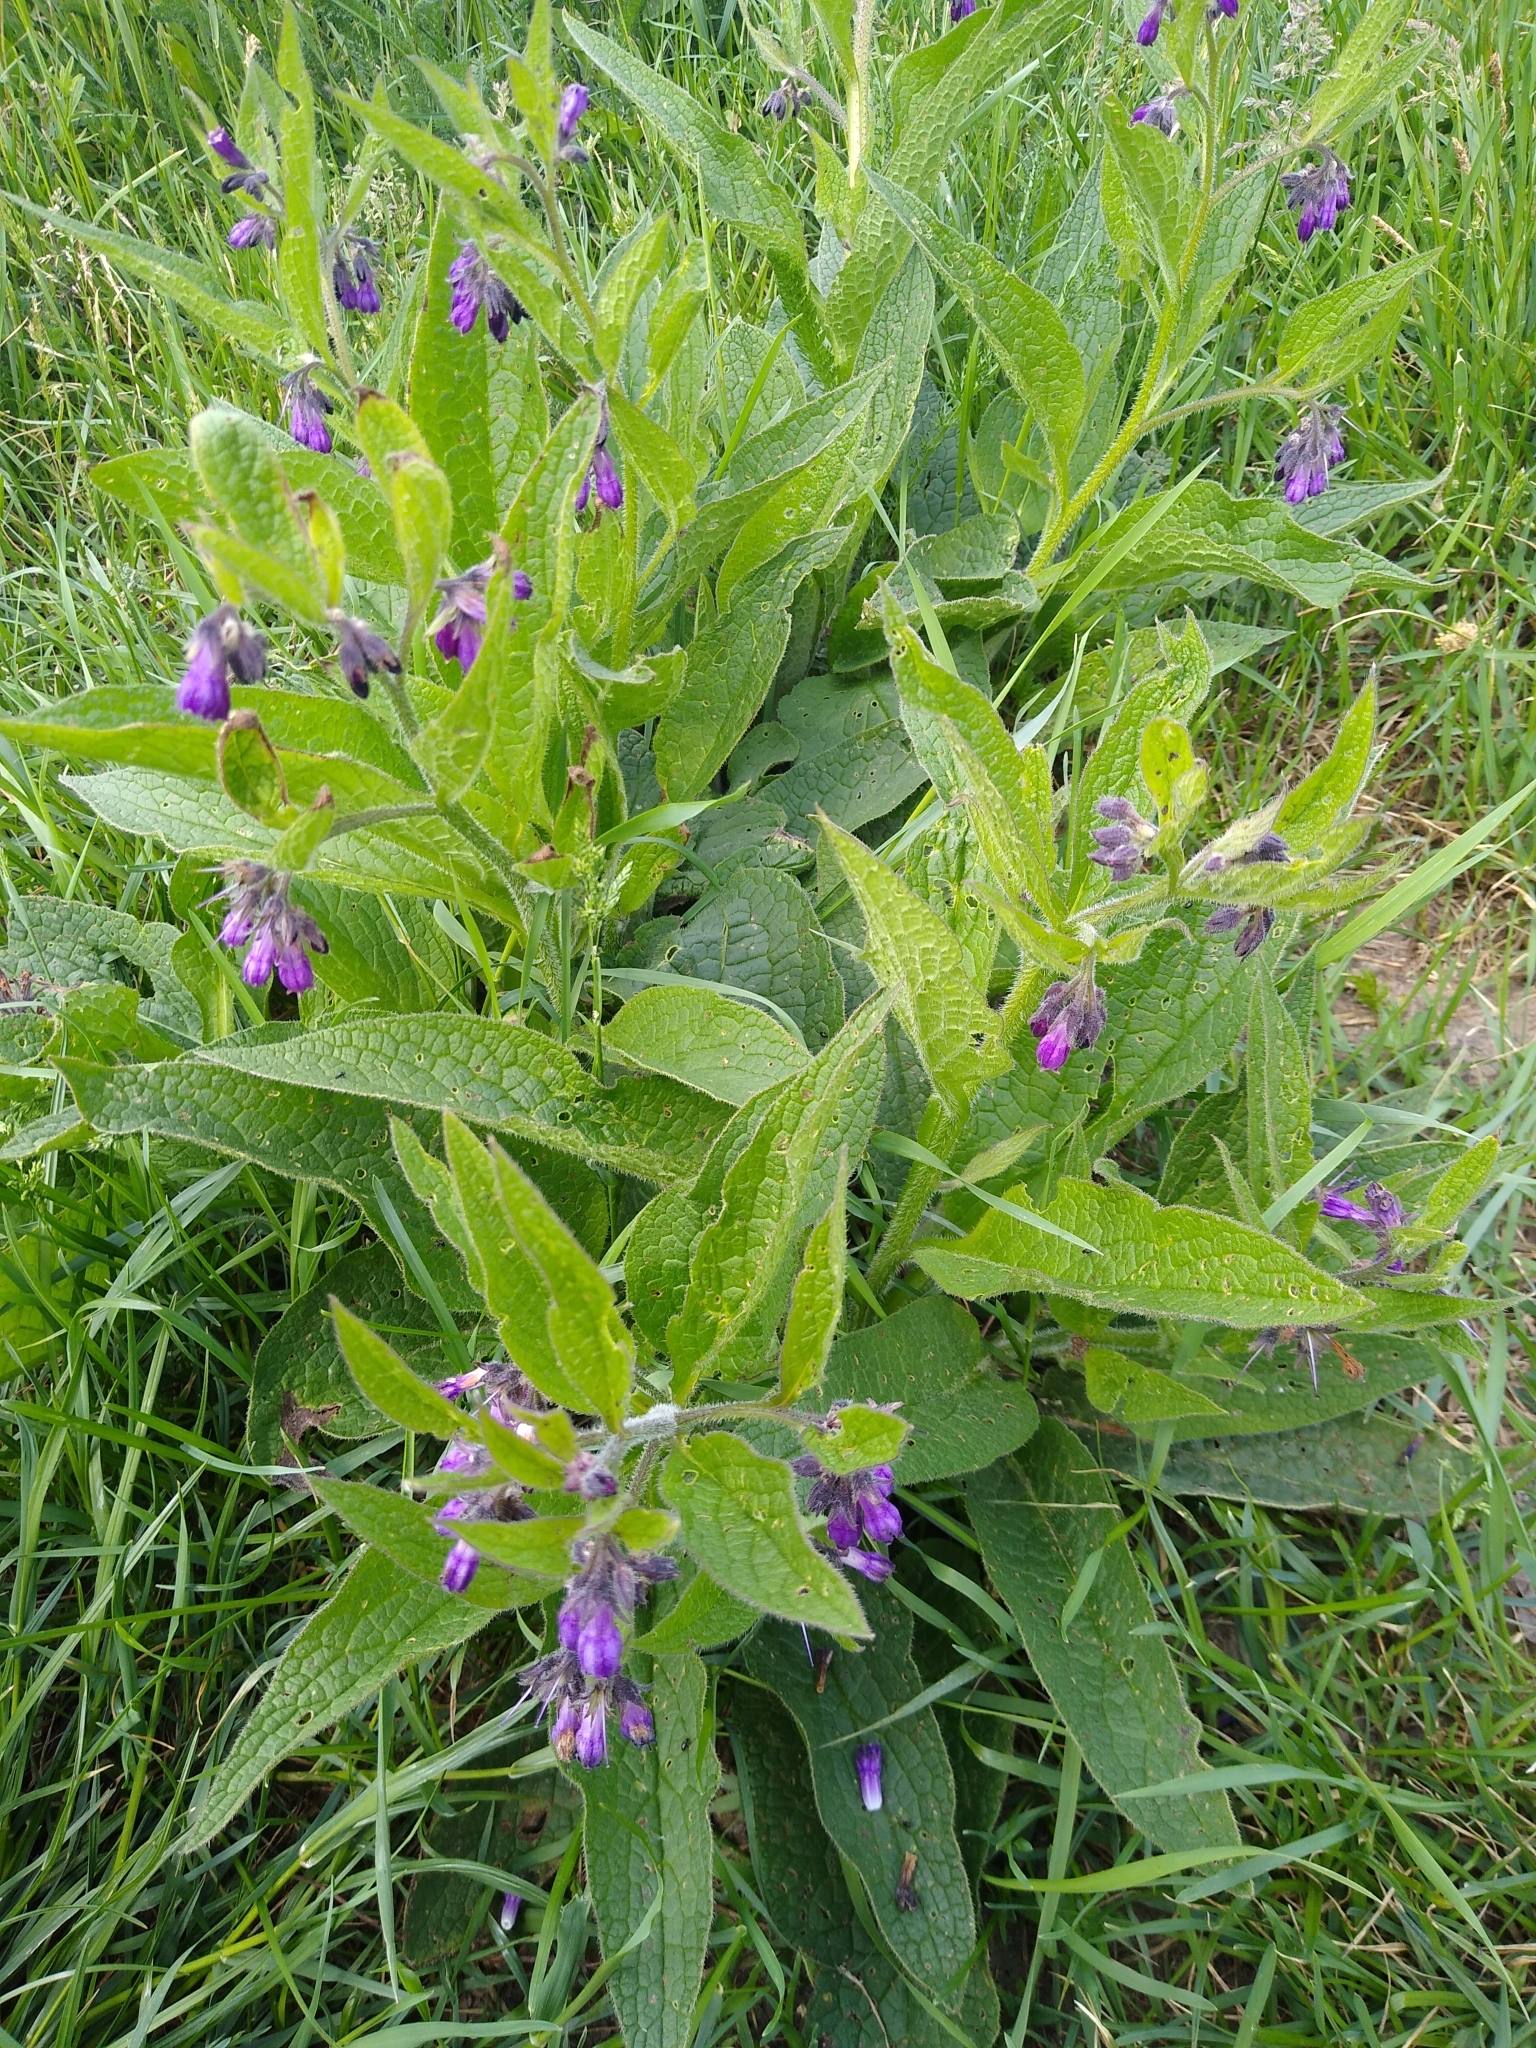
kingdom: Plantae
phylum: Tracheophyta
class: Magnoliopsida
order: Boraginales
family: Boraginaceae
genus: Symphytum
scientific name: Symphytum officinale
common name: Common comfrey
